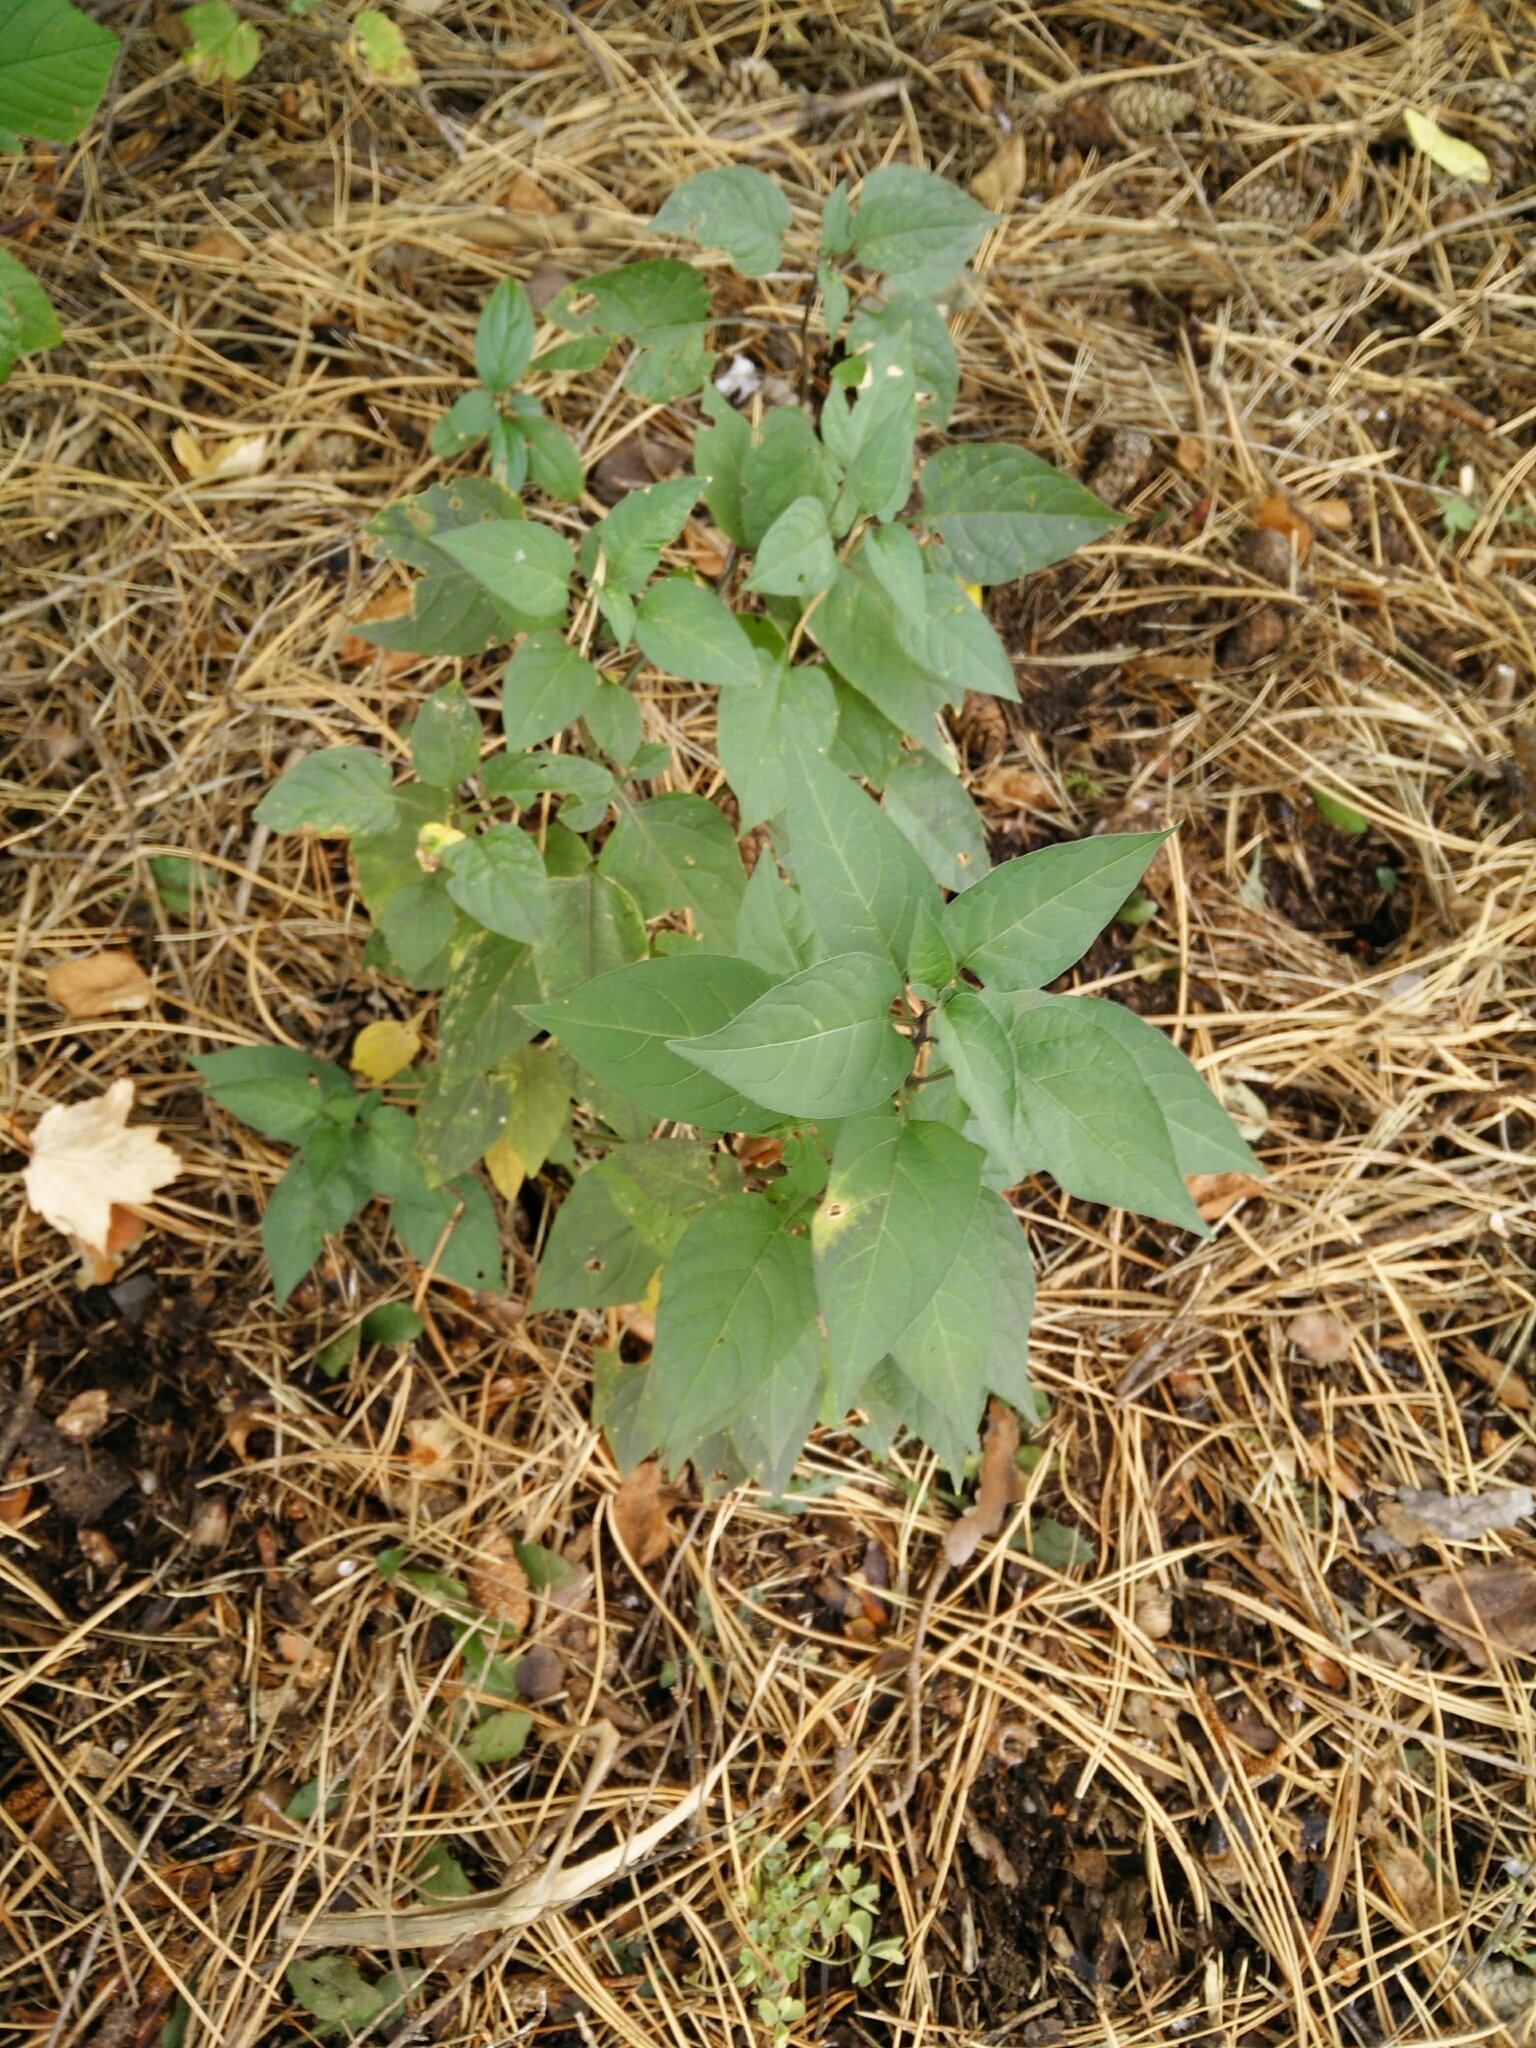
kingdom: Plantae
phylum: Tracheophyta
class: Magnoliopsida
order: Solanales
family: Solanaceae
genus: Solanum
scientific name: Solanum dulcamara
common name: Climbing nightshade
